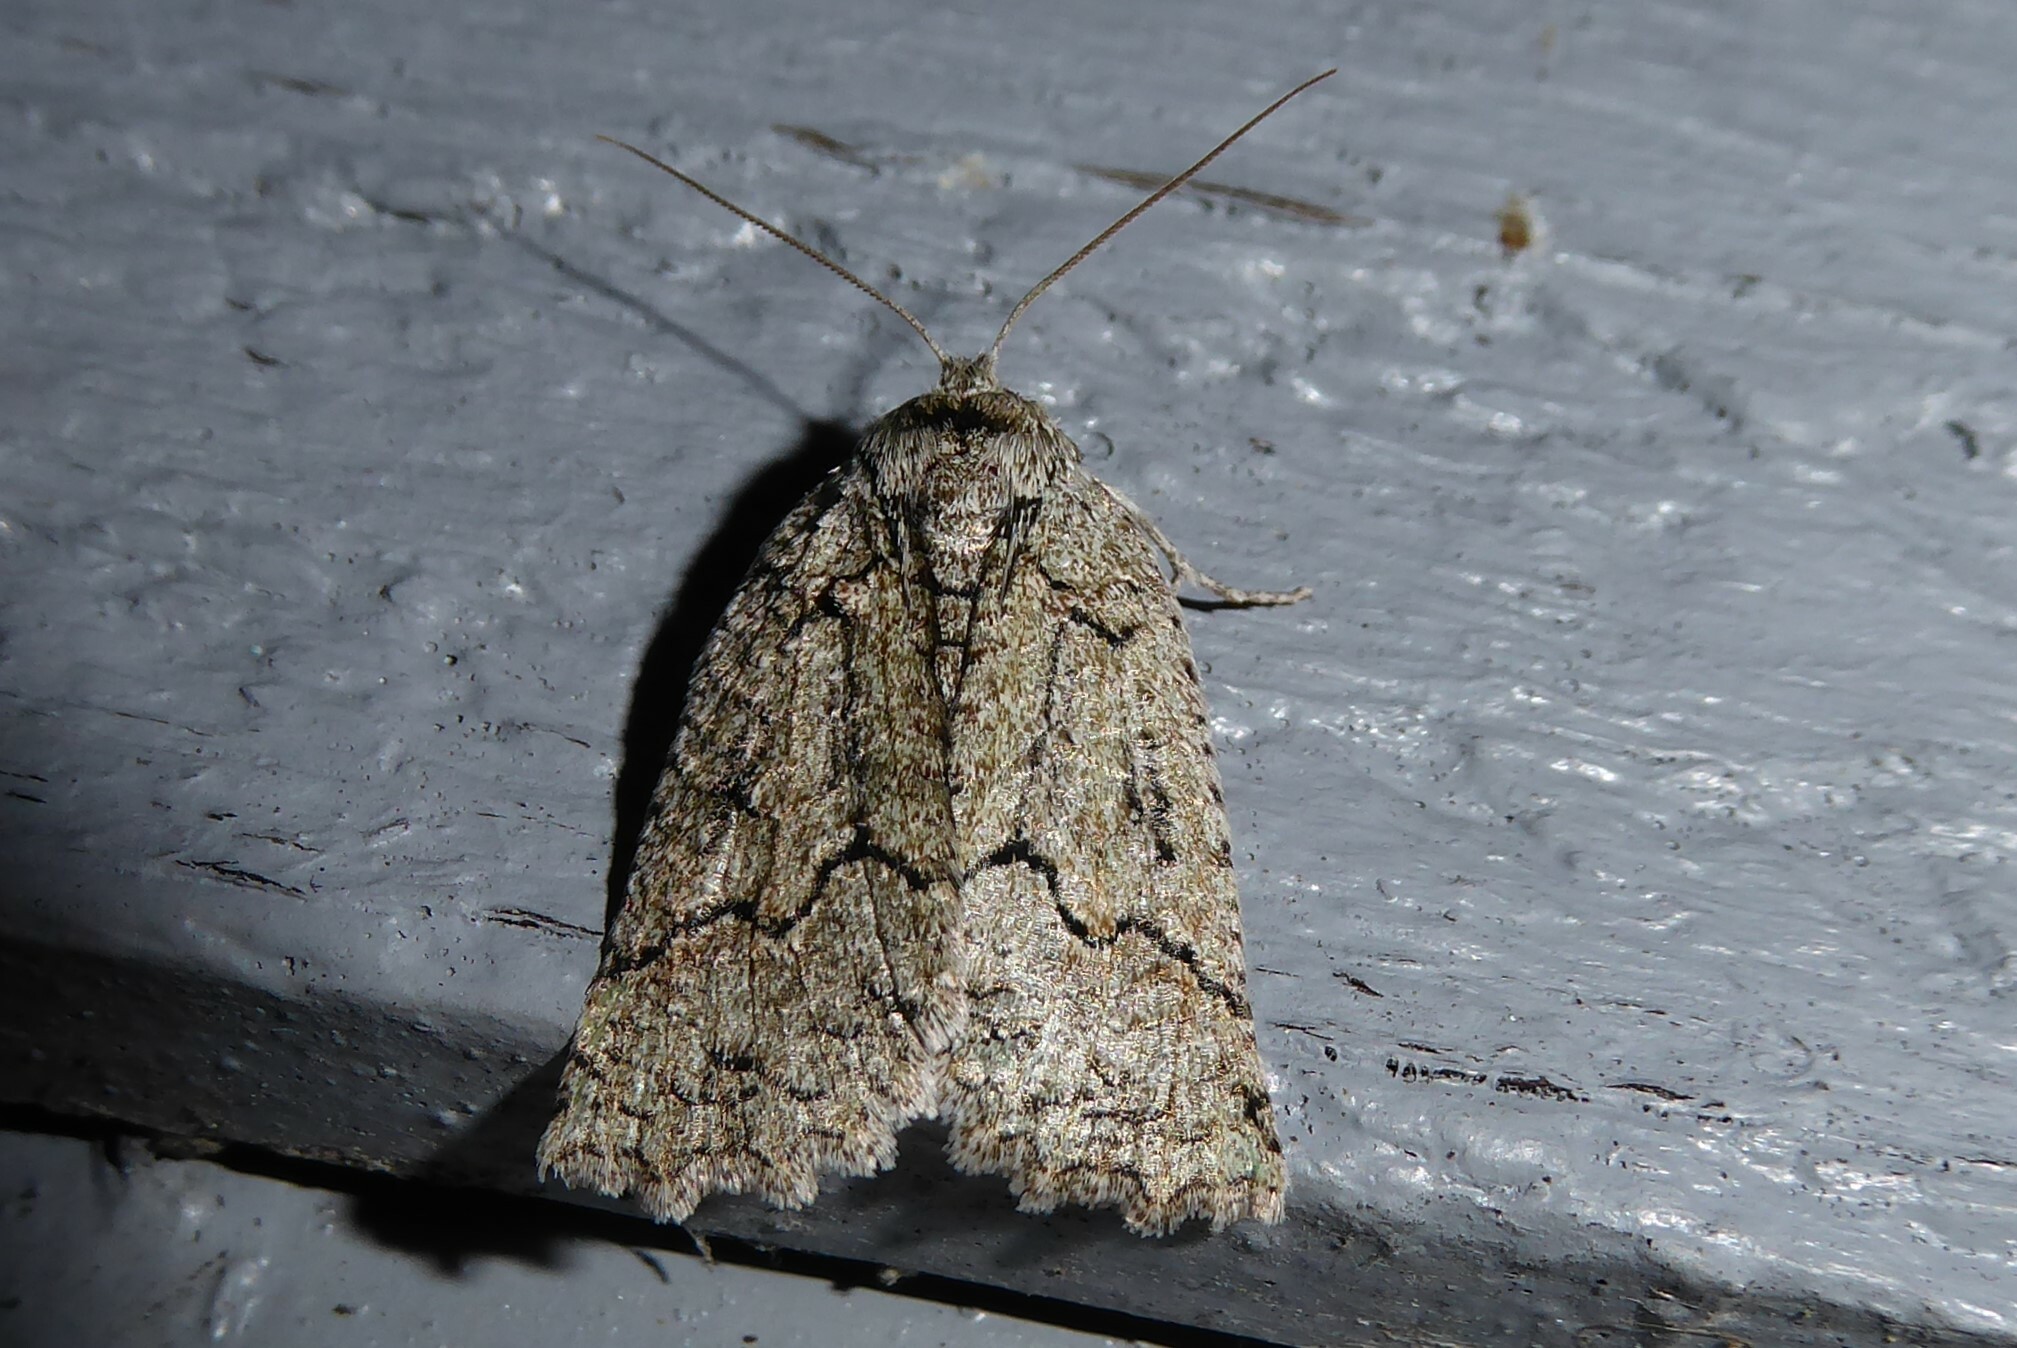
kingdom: Animalia
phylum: Arthropoda
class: Insecta
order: Lepidoptera
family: Geometridae
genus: Declana
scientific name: Declana floccosa
